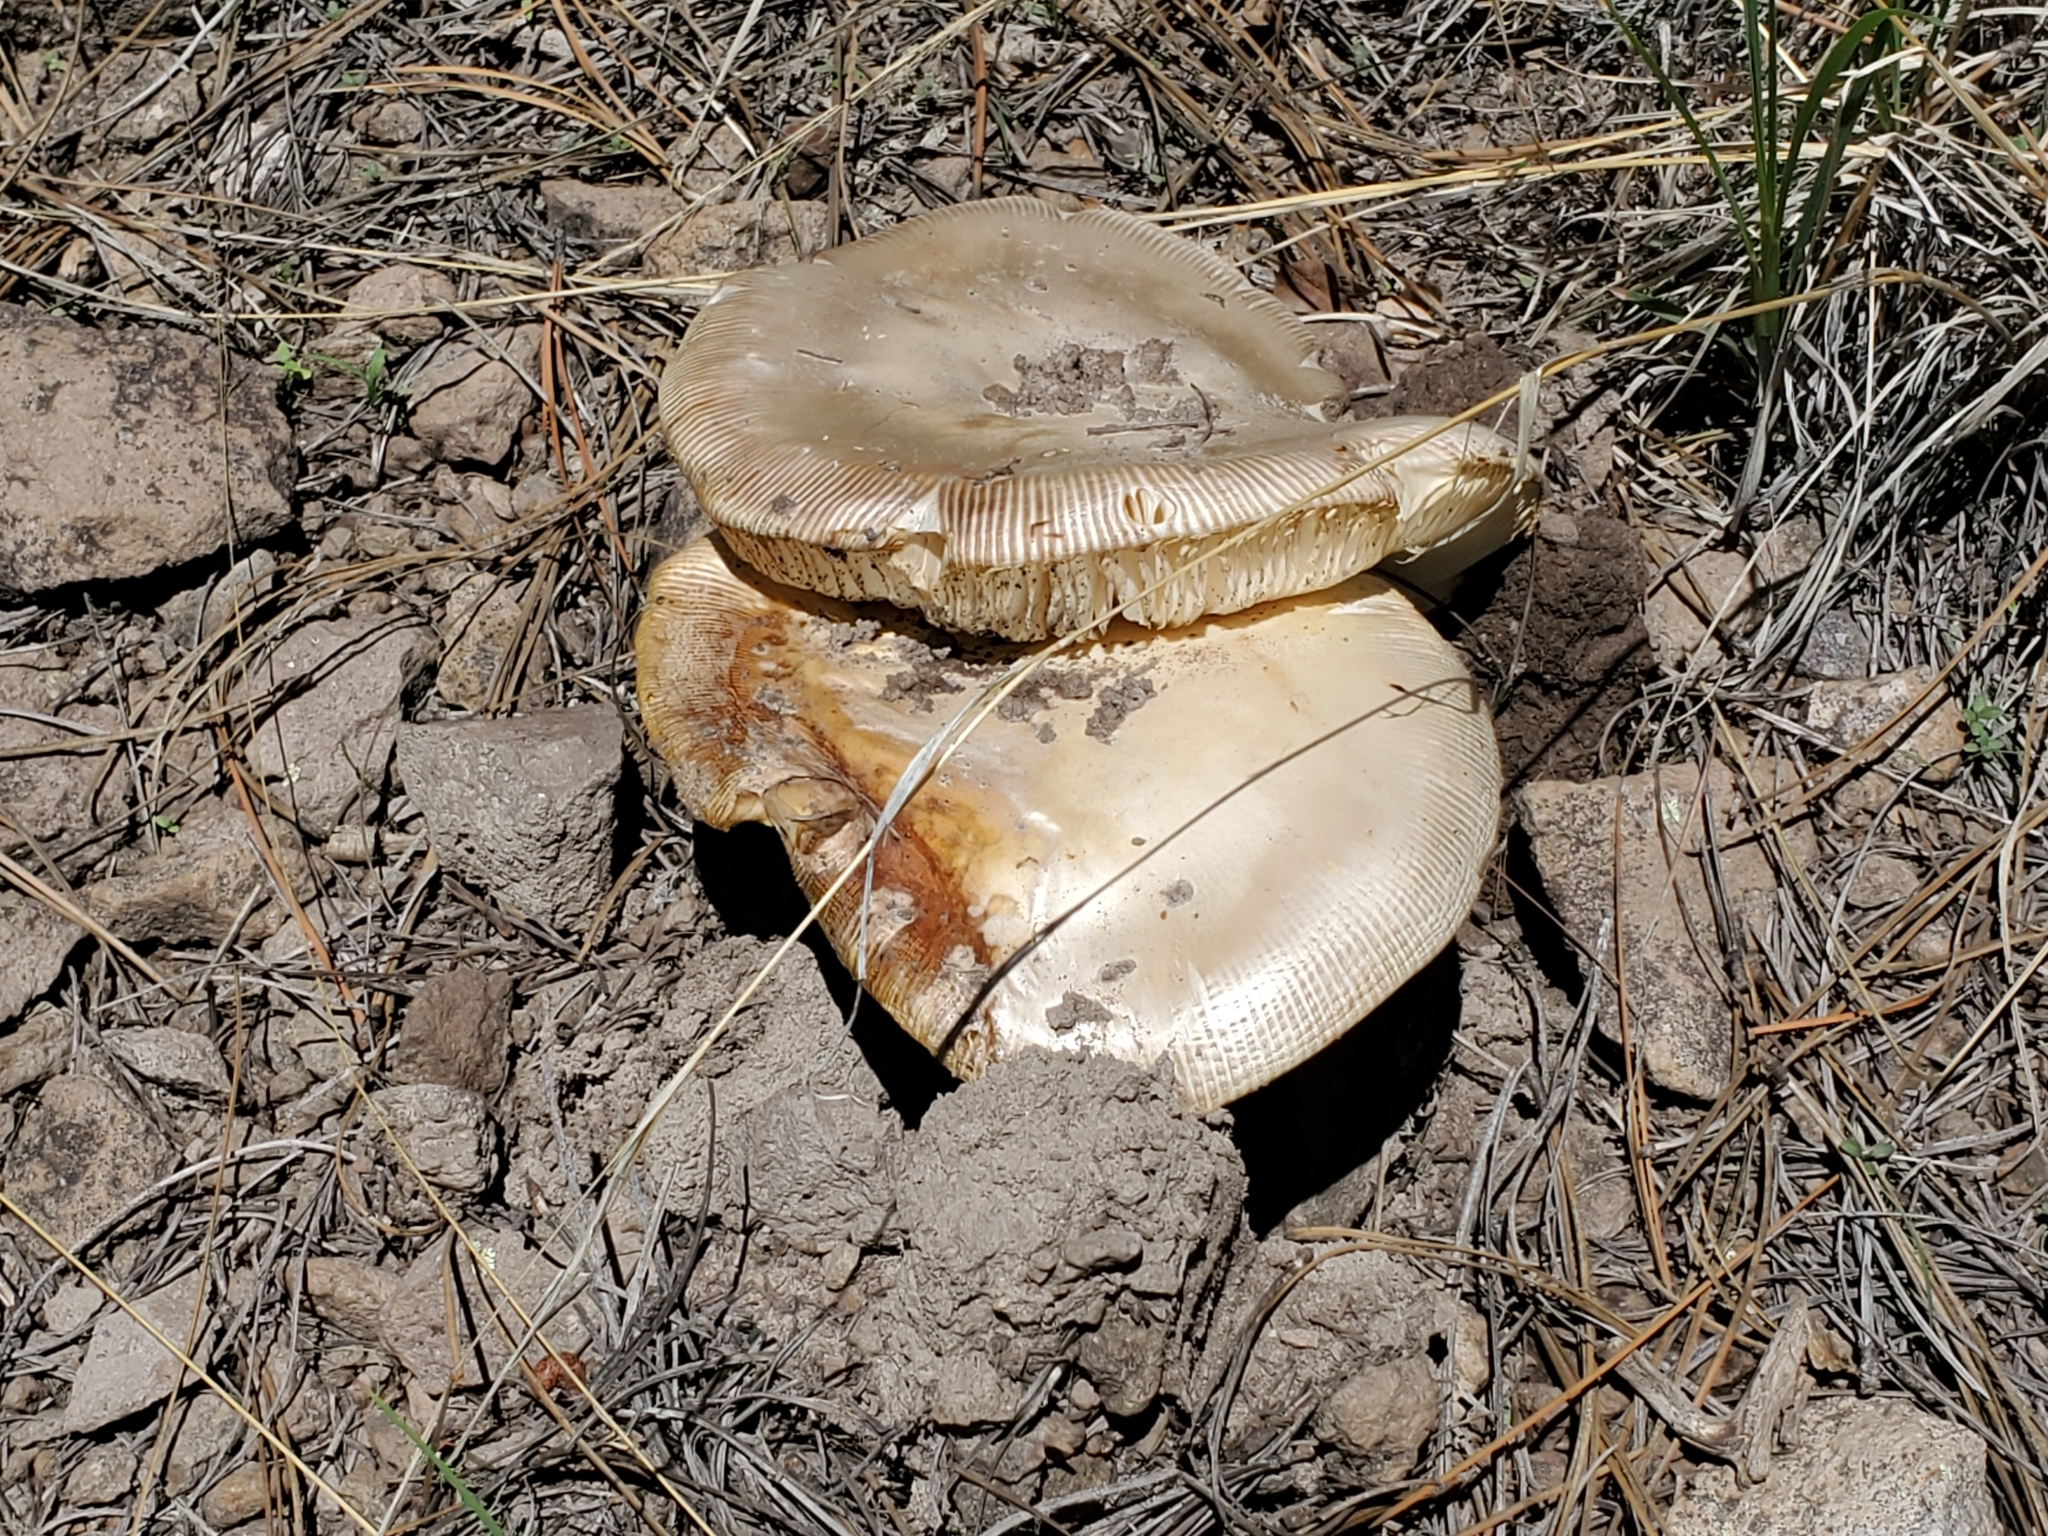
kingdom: Fungi
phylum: Basidiomycota
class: Agaricomycetes
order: Agaricales
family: Amanitaceae
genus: Amanita
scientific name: Amanita
